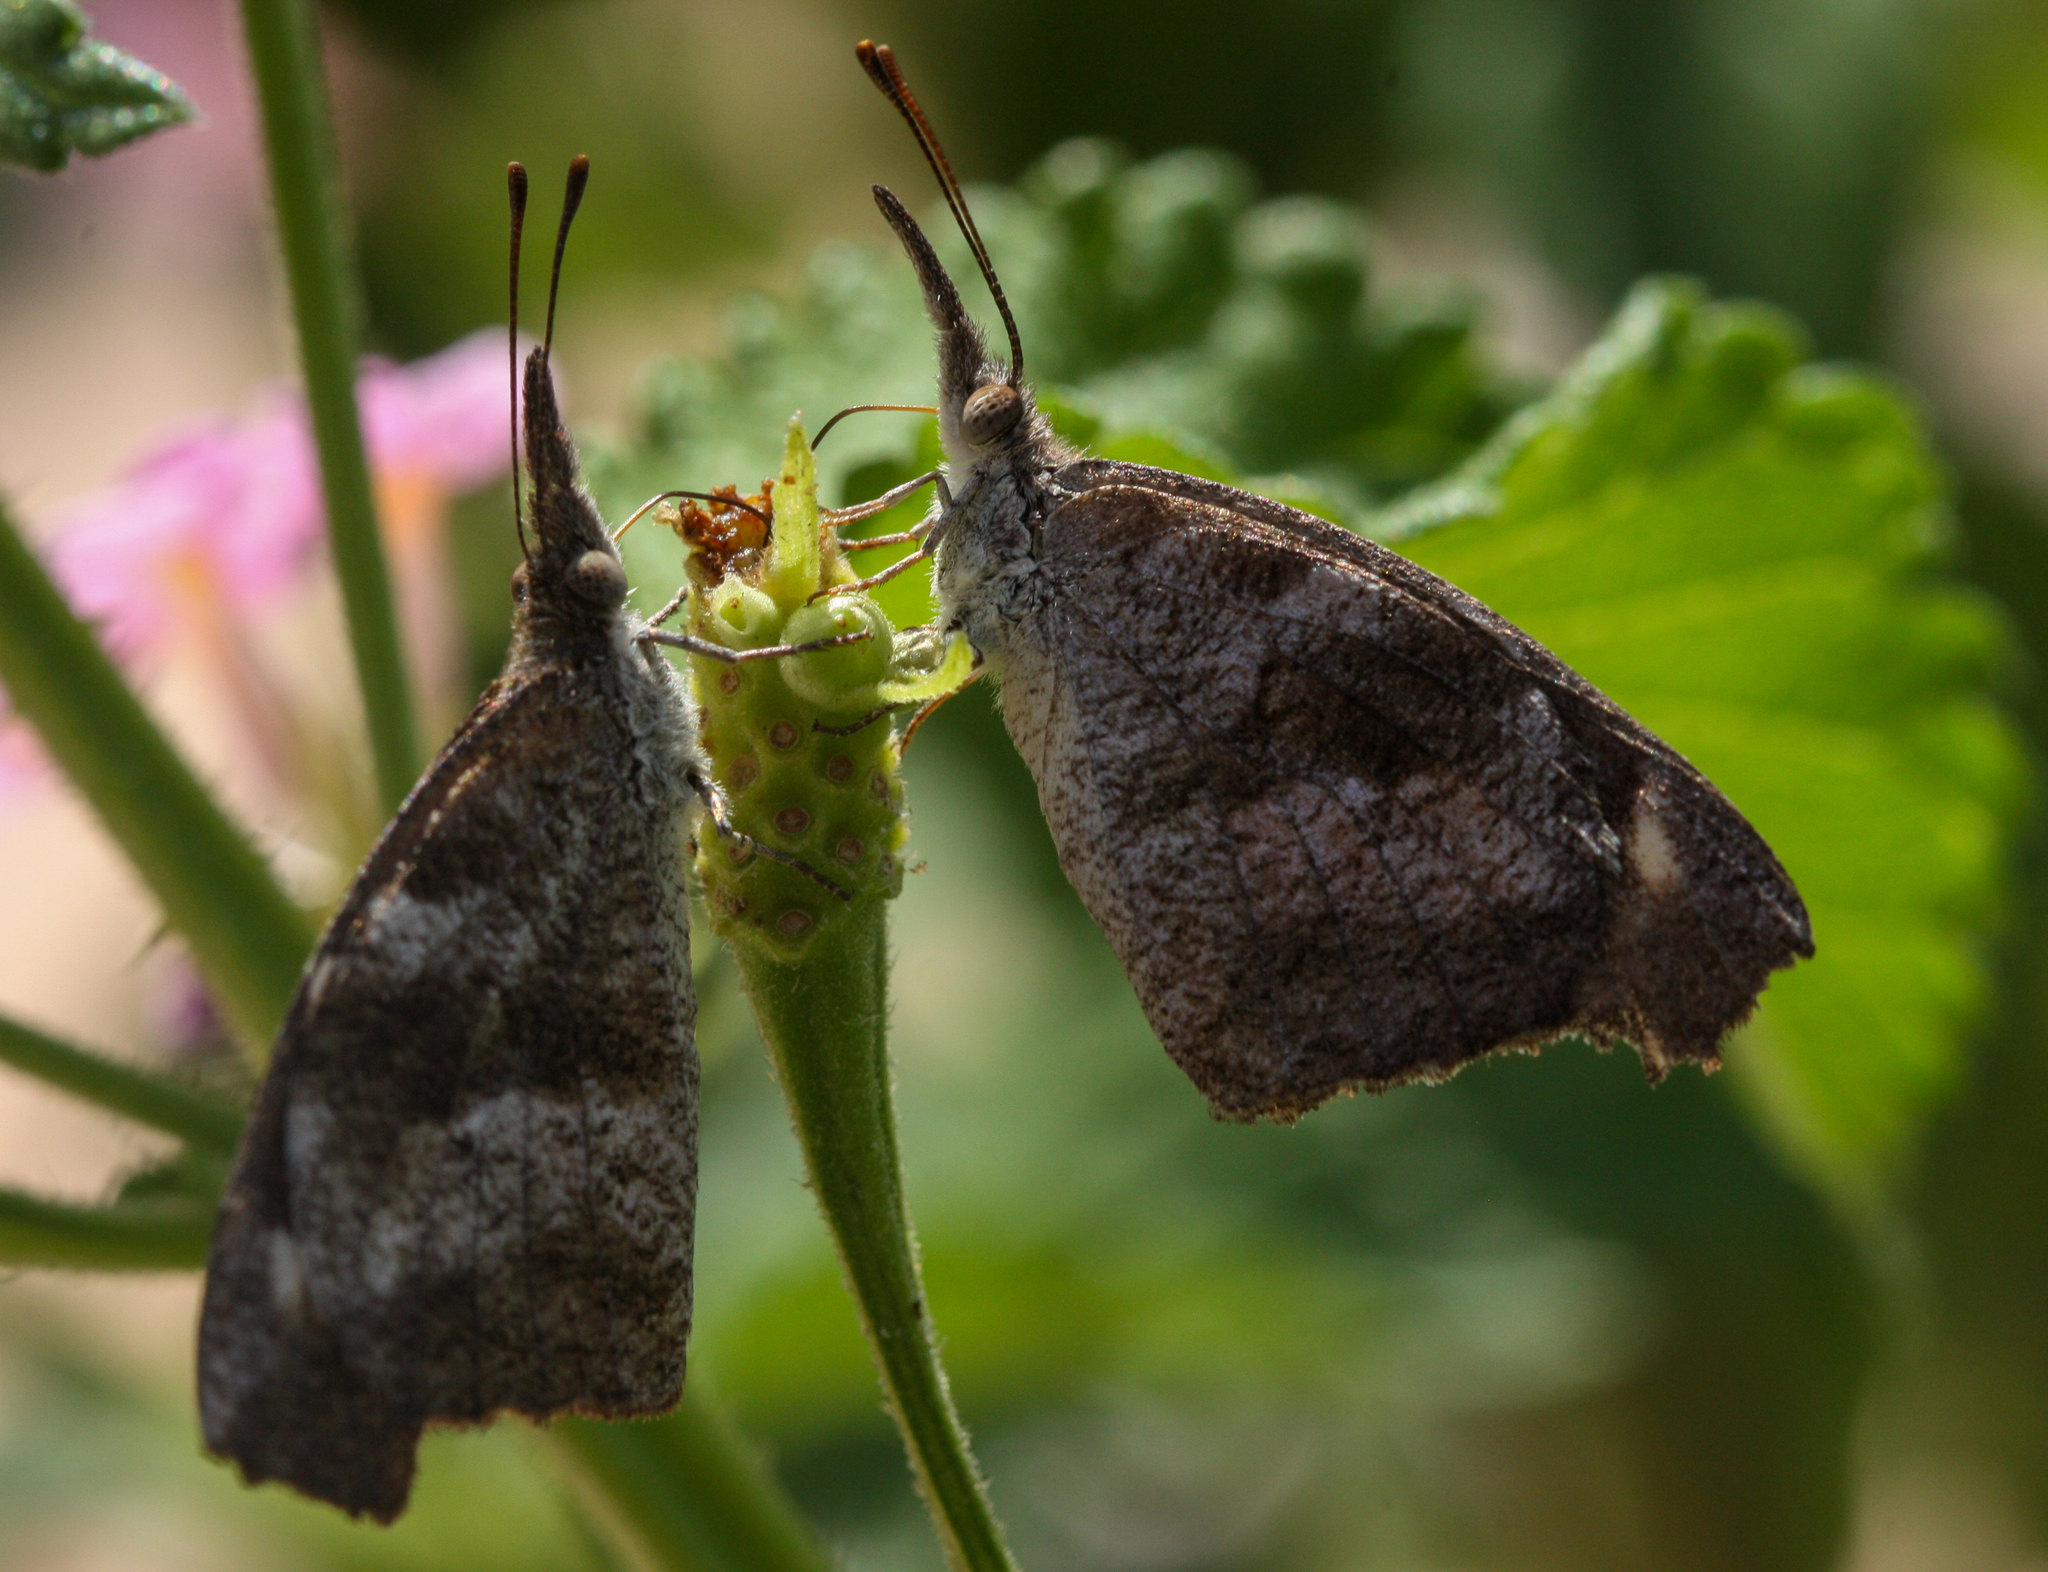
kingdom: Animalia
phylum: Arthropoda
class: Insecta
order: Lepidoptera
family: Nymphalidae
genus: Libytheana
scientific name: Libytheana carinenta
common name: American snout
